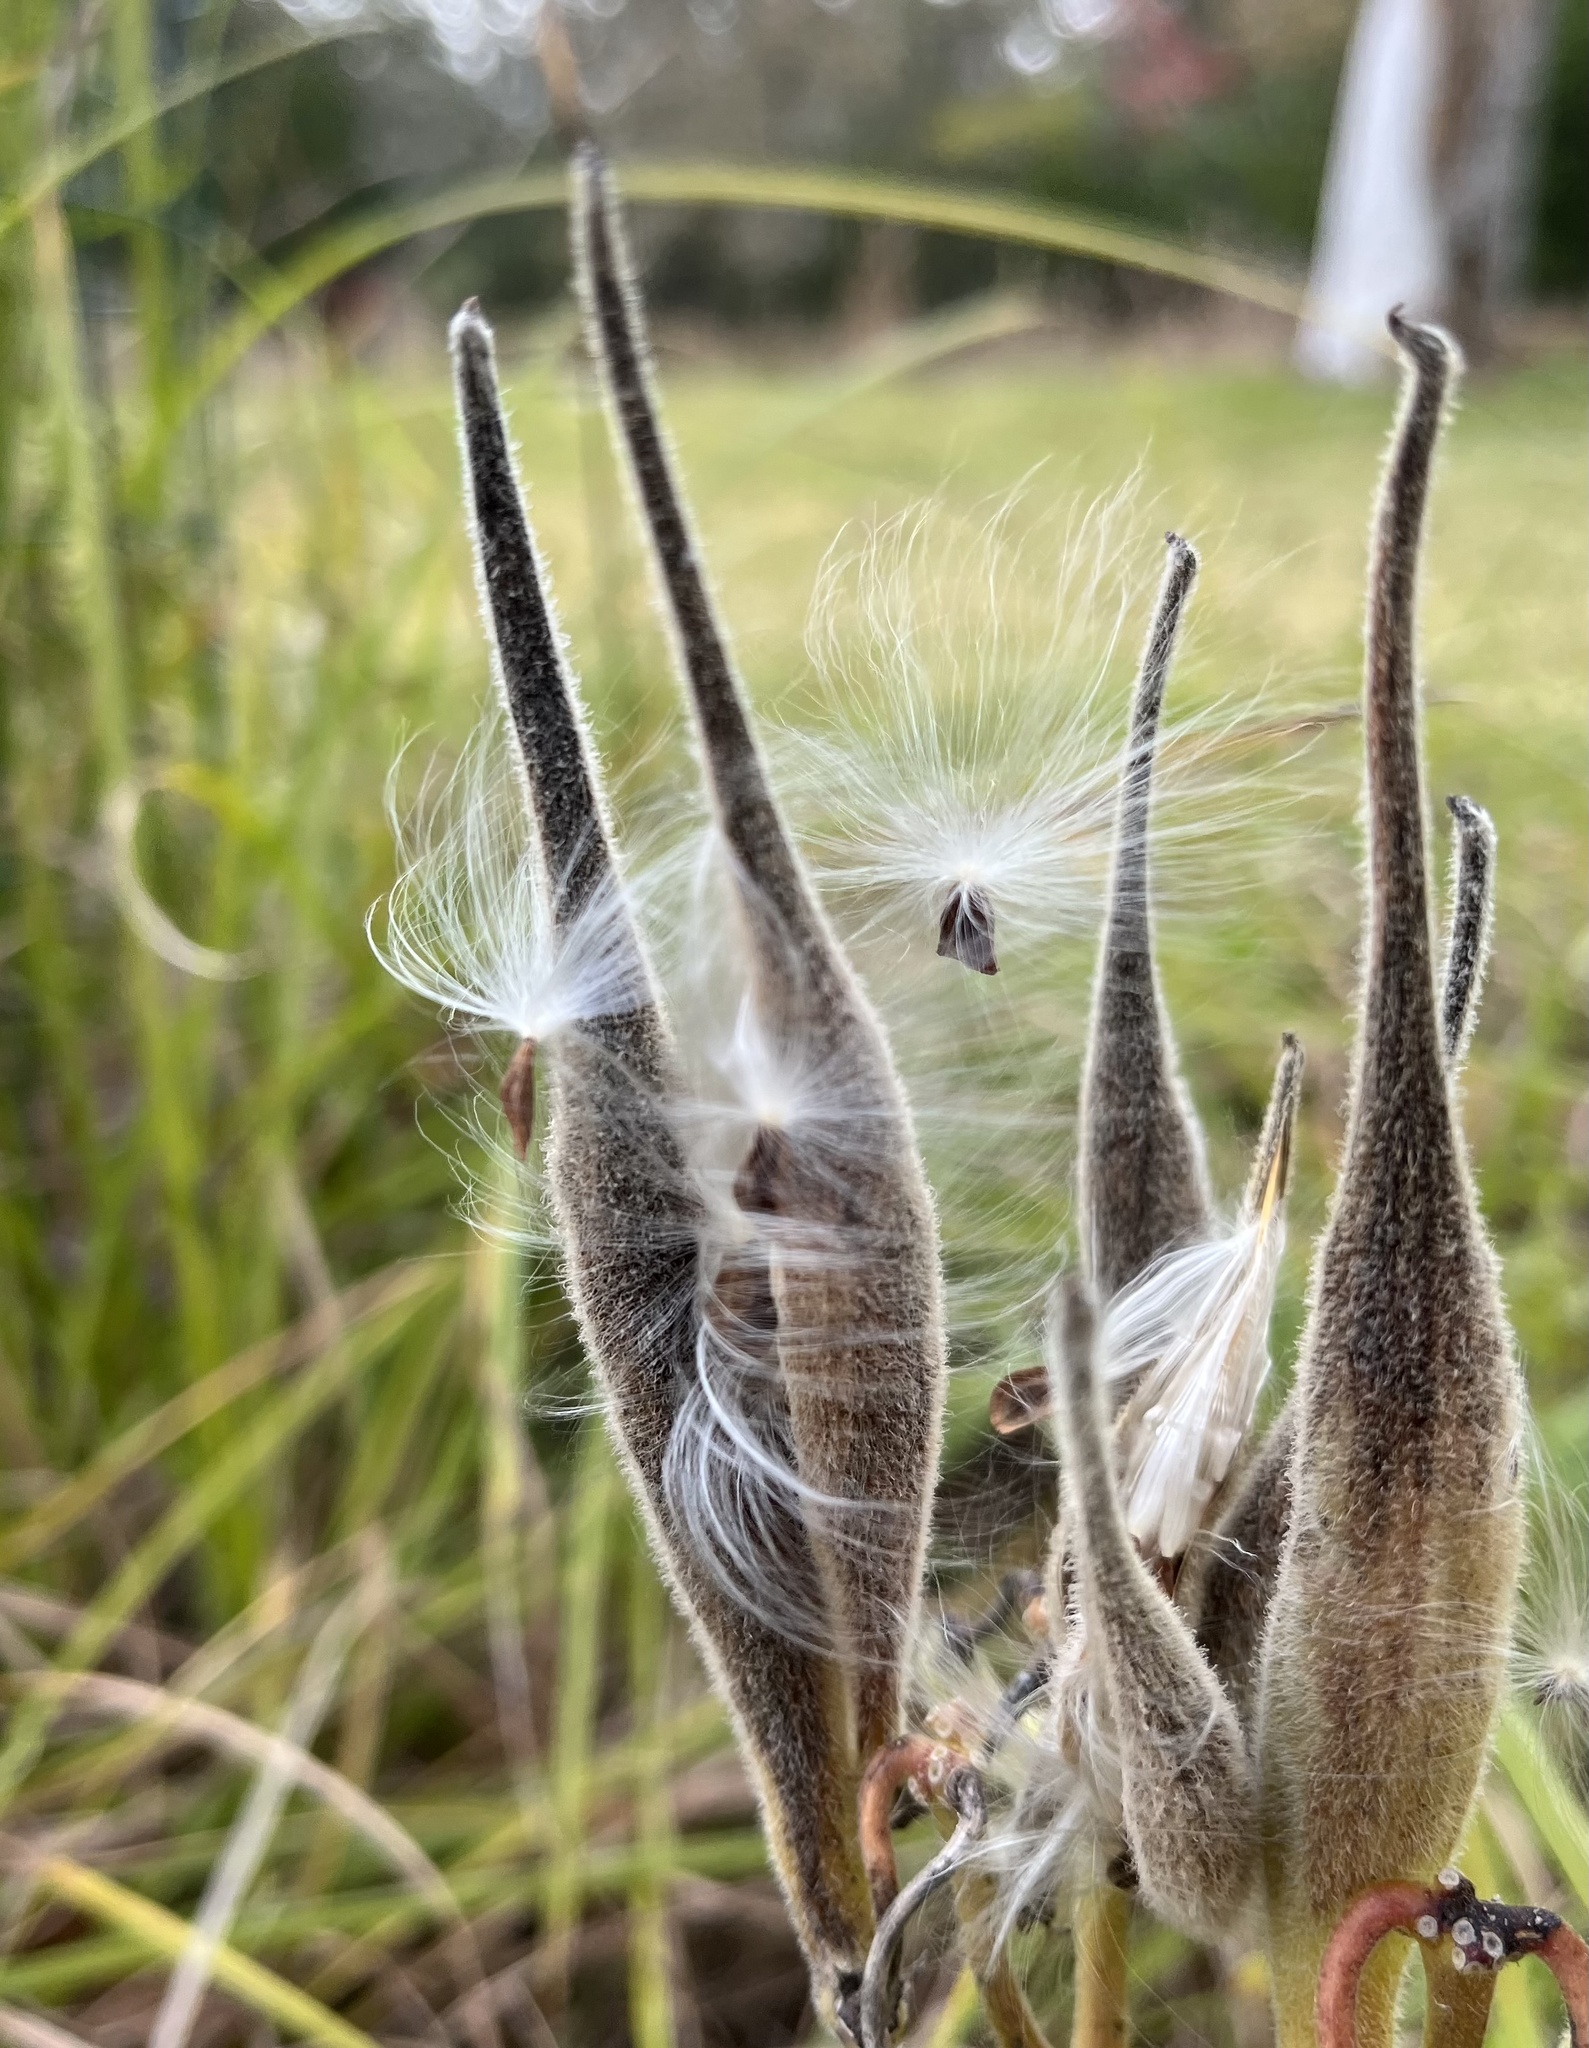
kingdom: Plantae
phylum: Tracheophyta
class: Magnoliopsida
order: Gentianales
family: Apocynaceae
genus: Asclepias
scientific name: Asclepias tuberosa
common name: Butterfly milkweed
